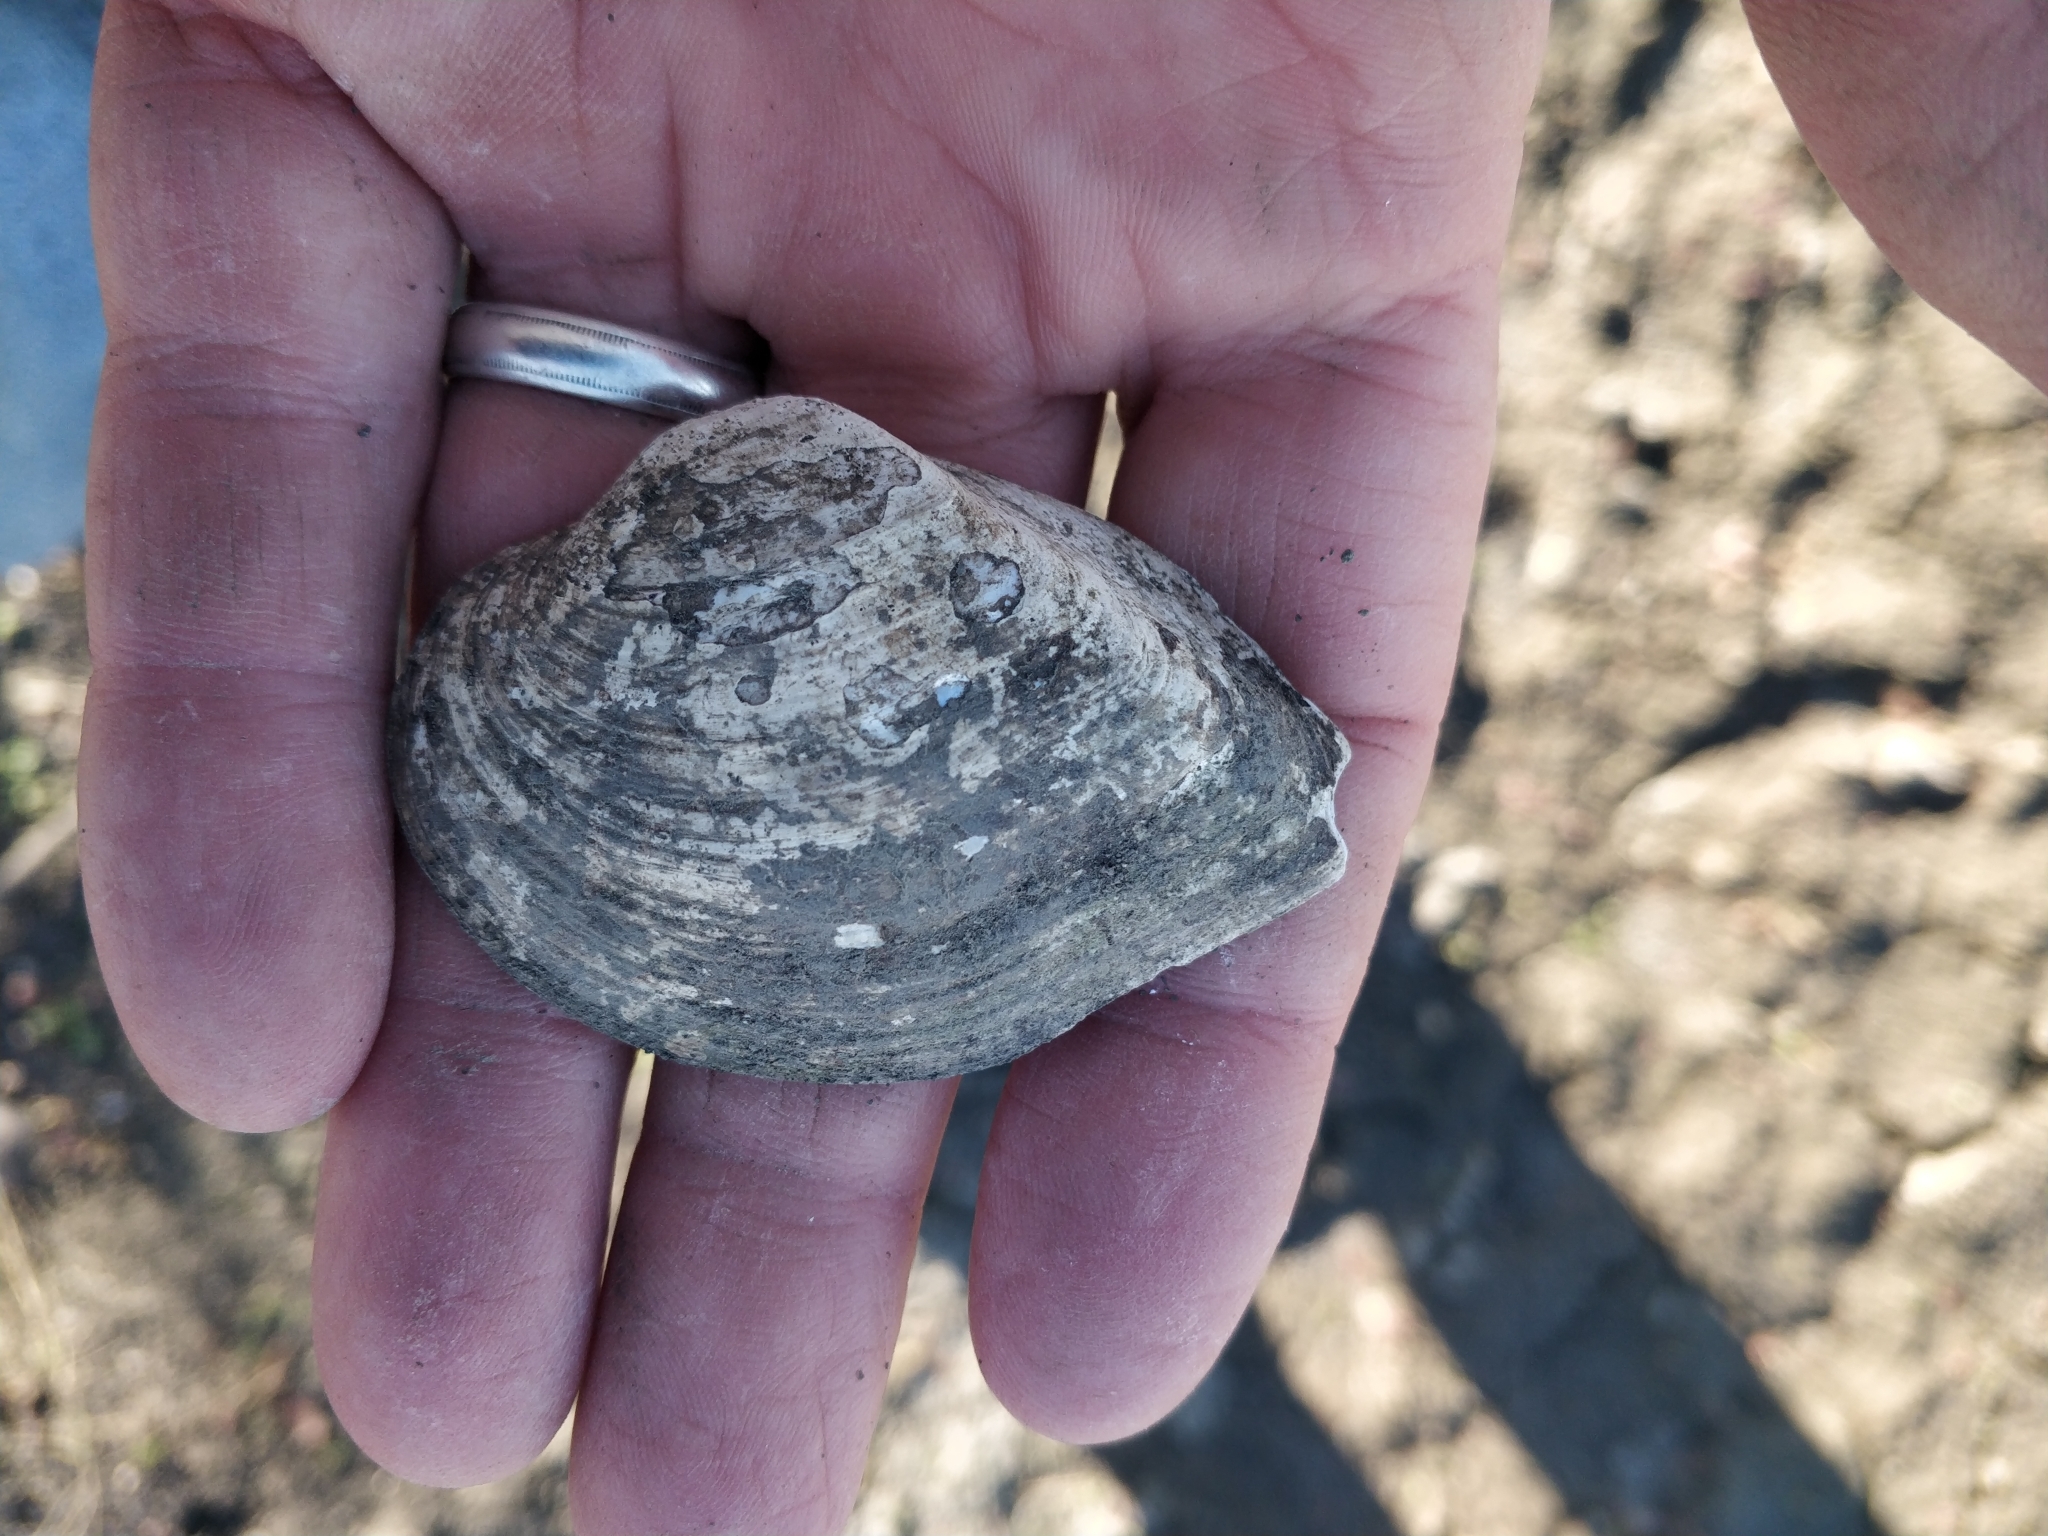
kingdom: Animalia
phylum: Mollusca
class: Bivalvia
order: Unionida
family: Unionidae
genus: Truncilla
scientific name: Truncilla truncata
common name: Deertoe
